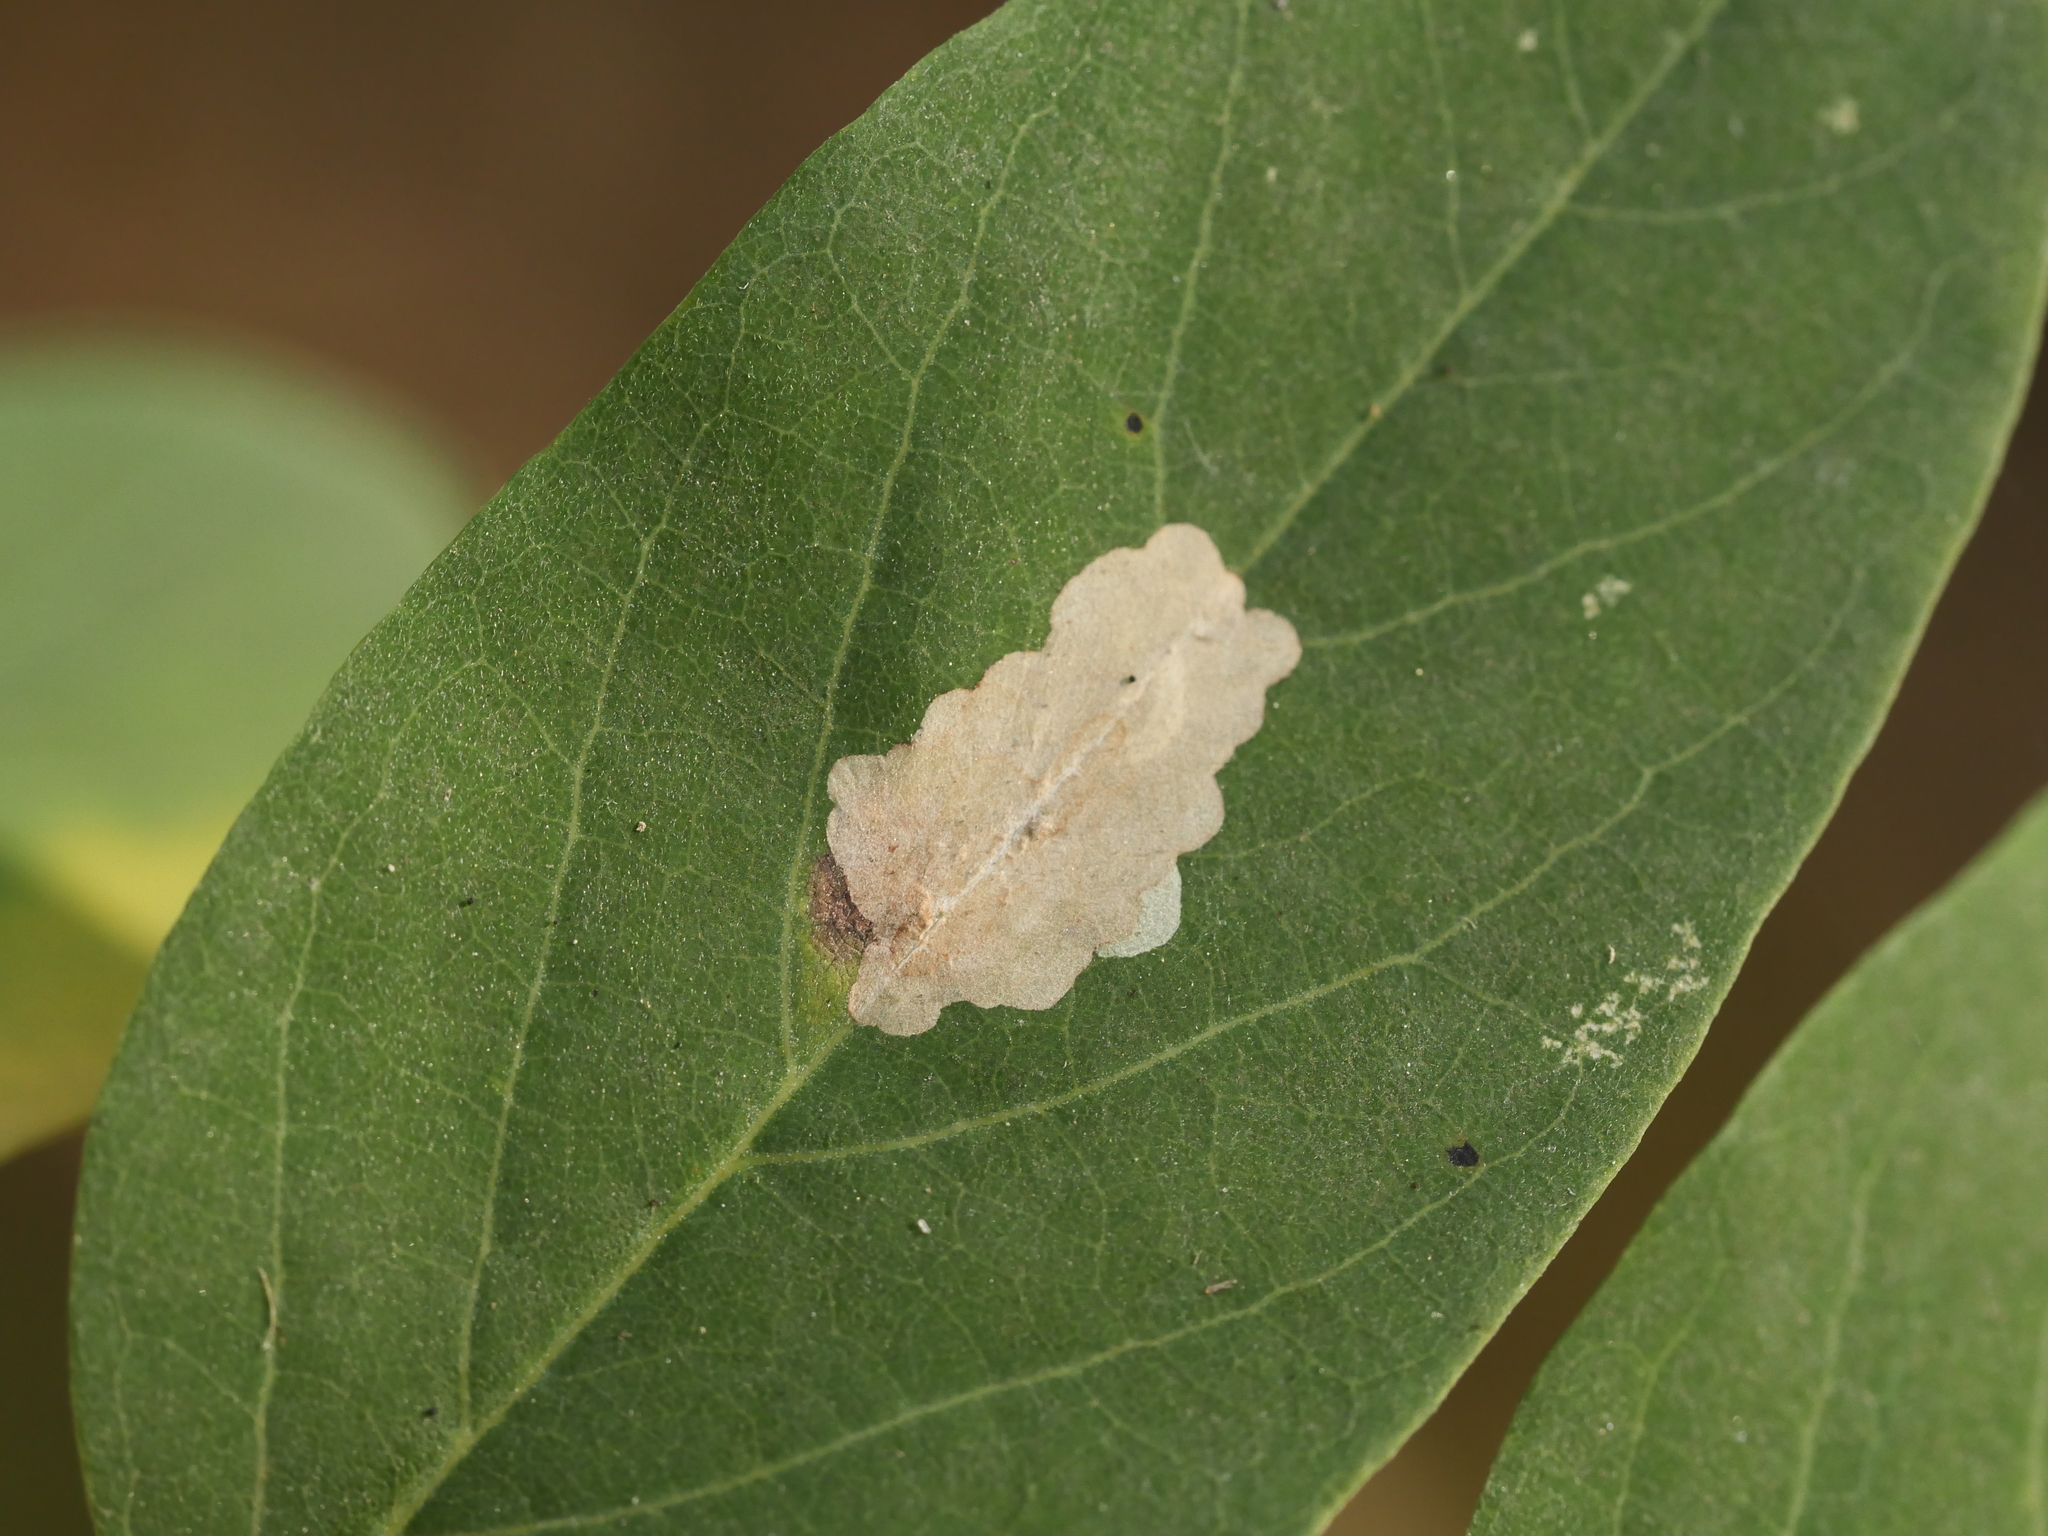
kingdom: Animalia
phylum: Arthropoda
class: Insecta
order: Lepidoptera
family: Gracillariidae
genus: Parectopa
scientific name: Parectopa robiniella
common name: Locust digitate leafminer
